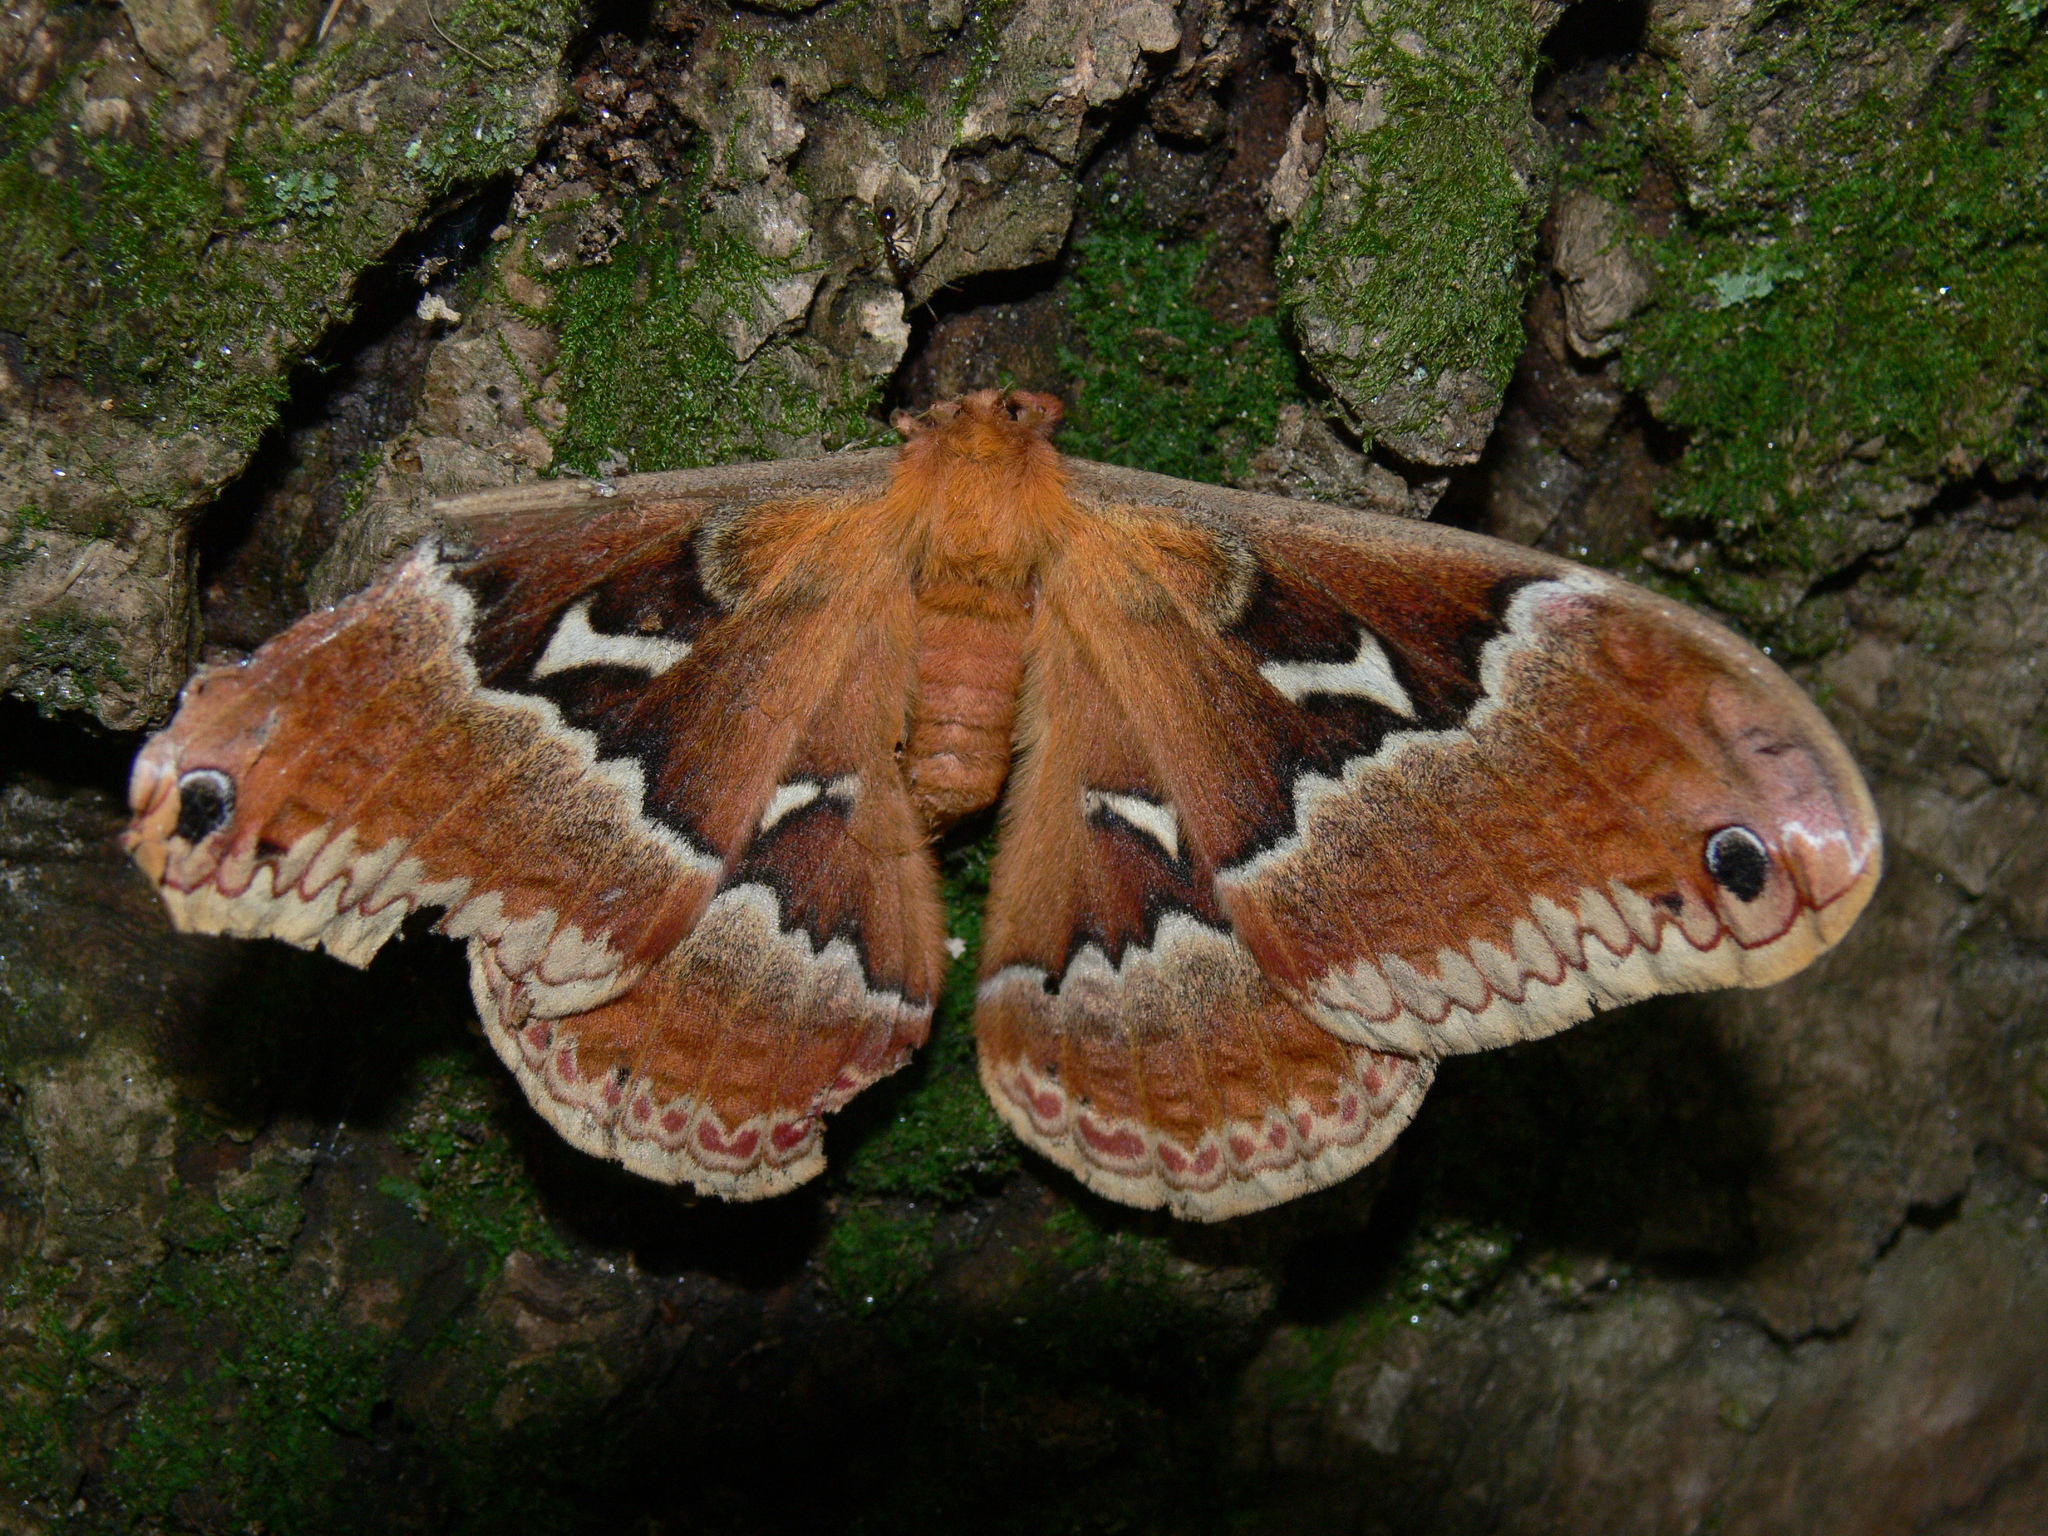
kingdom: Animalia
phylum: Arthropoda
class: Insecta
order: Lepidoptera
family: Saturniidae
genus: Callosamia
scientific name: Callosamia angulifera
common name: Tulip tree silkmoth
